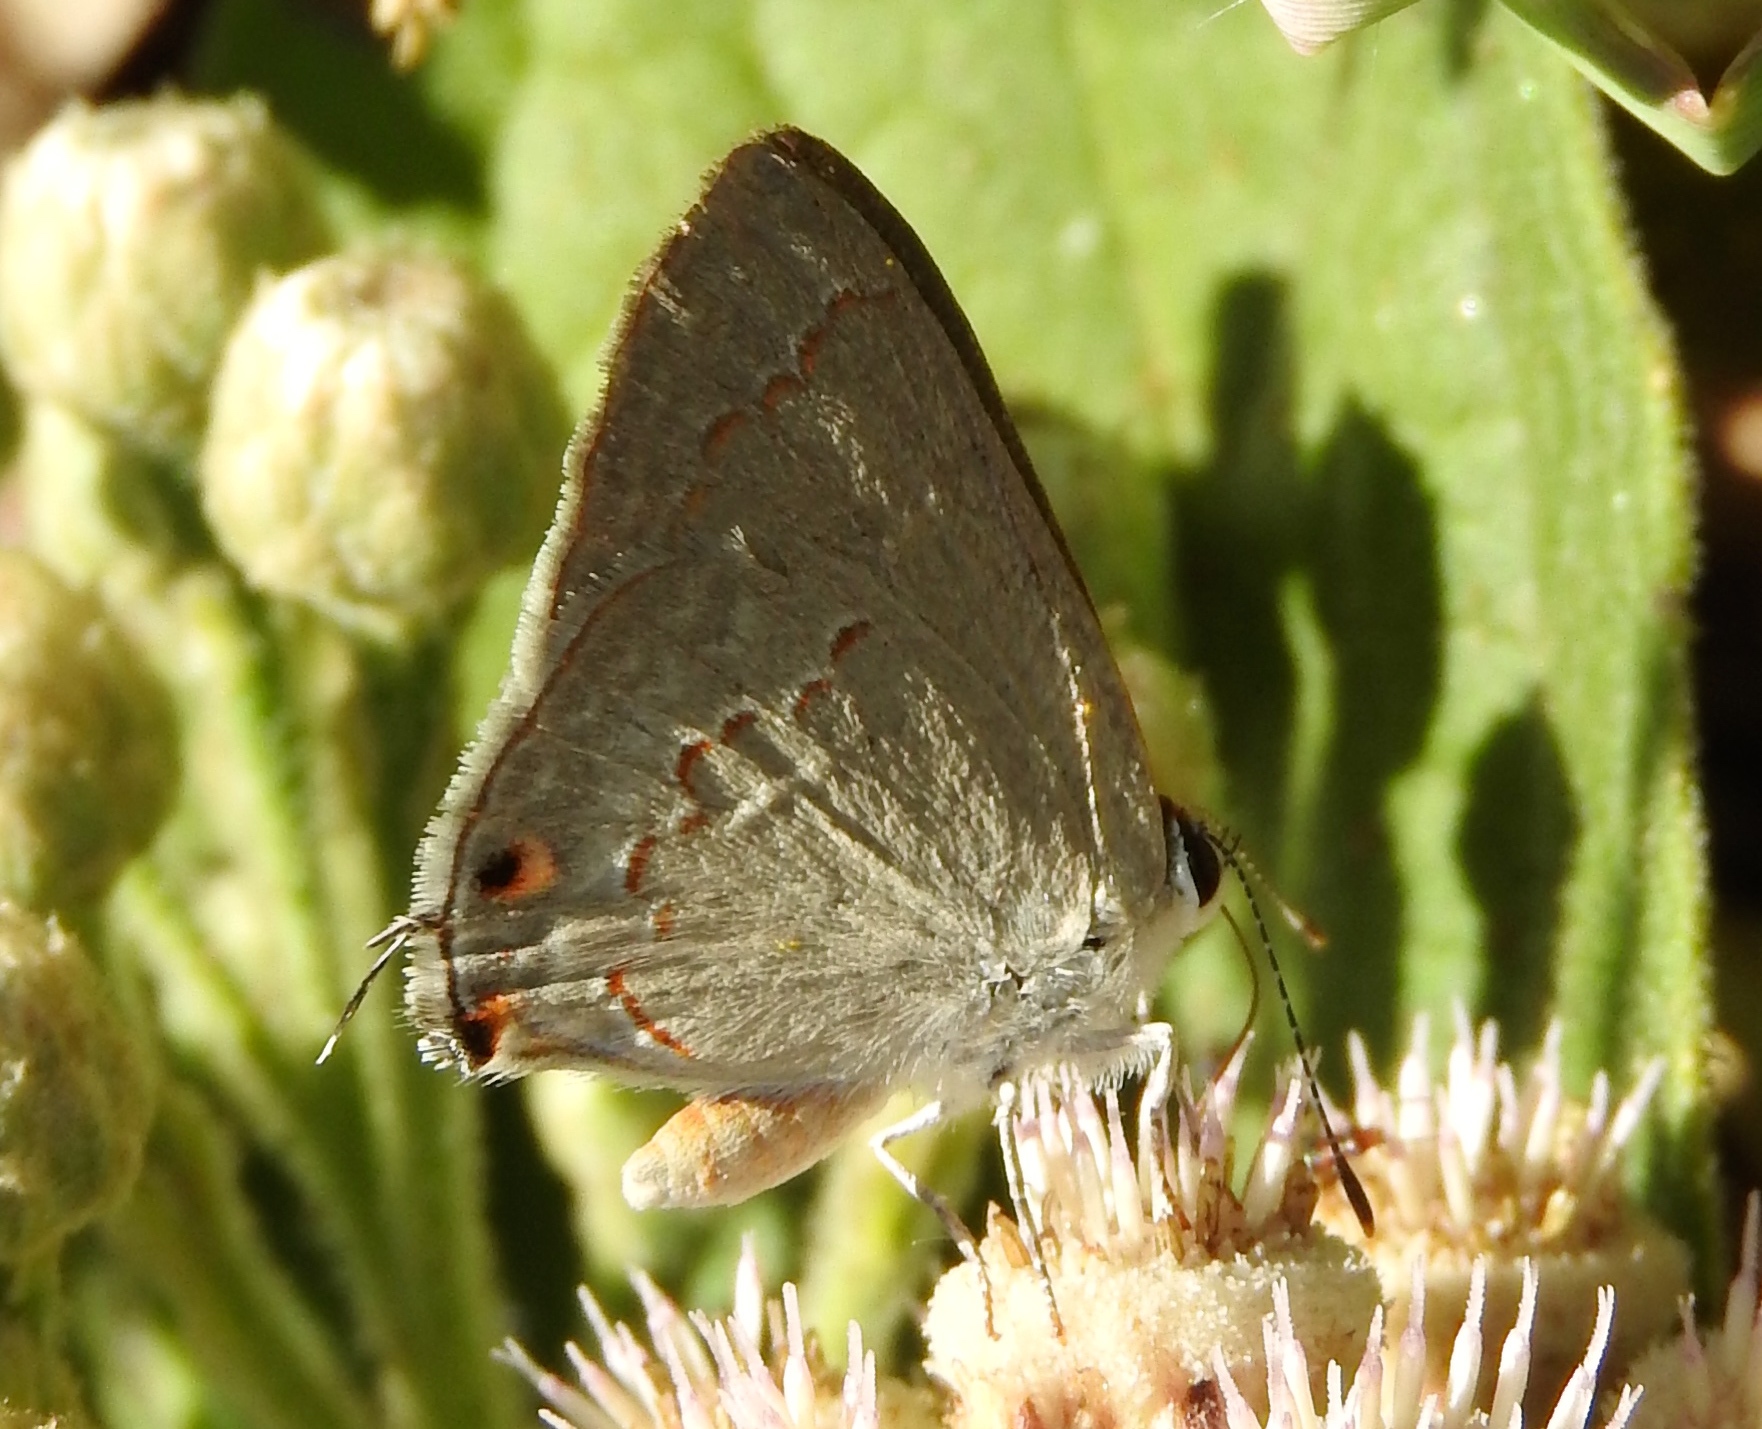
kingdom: Animalia
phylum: Arthropoda
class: Insecta
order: Lepidoptera
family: Lycaenidae
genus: Thecla
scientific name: Thecla rufofusca
